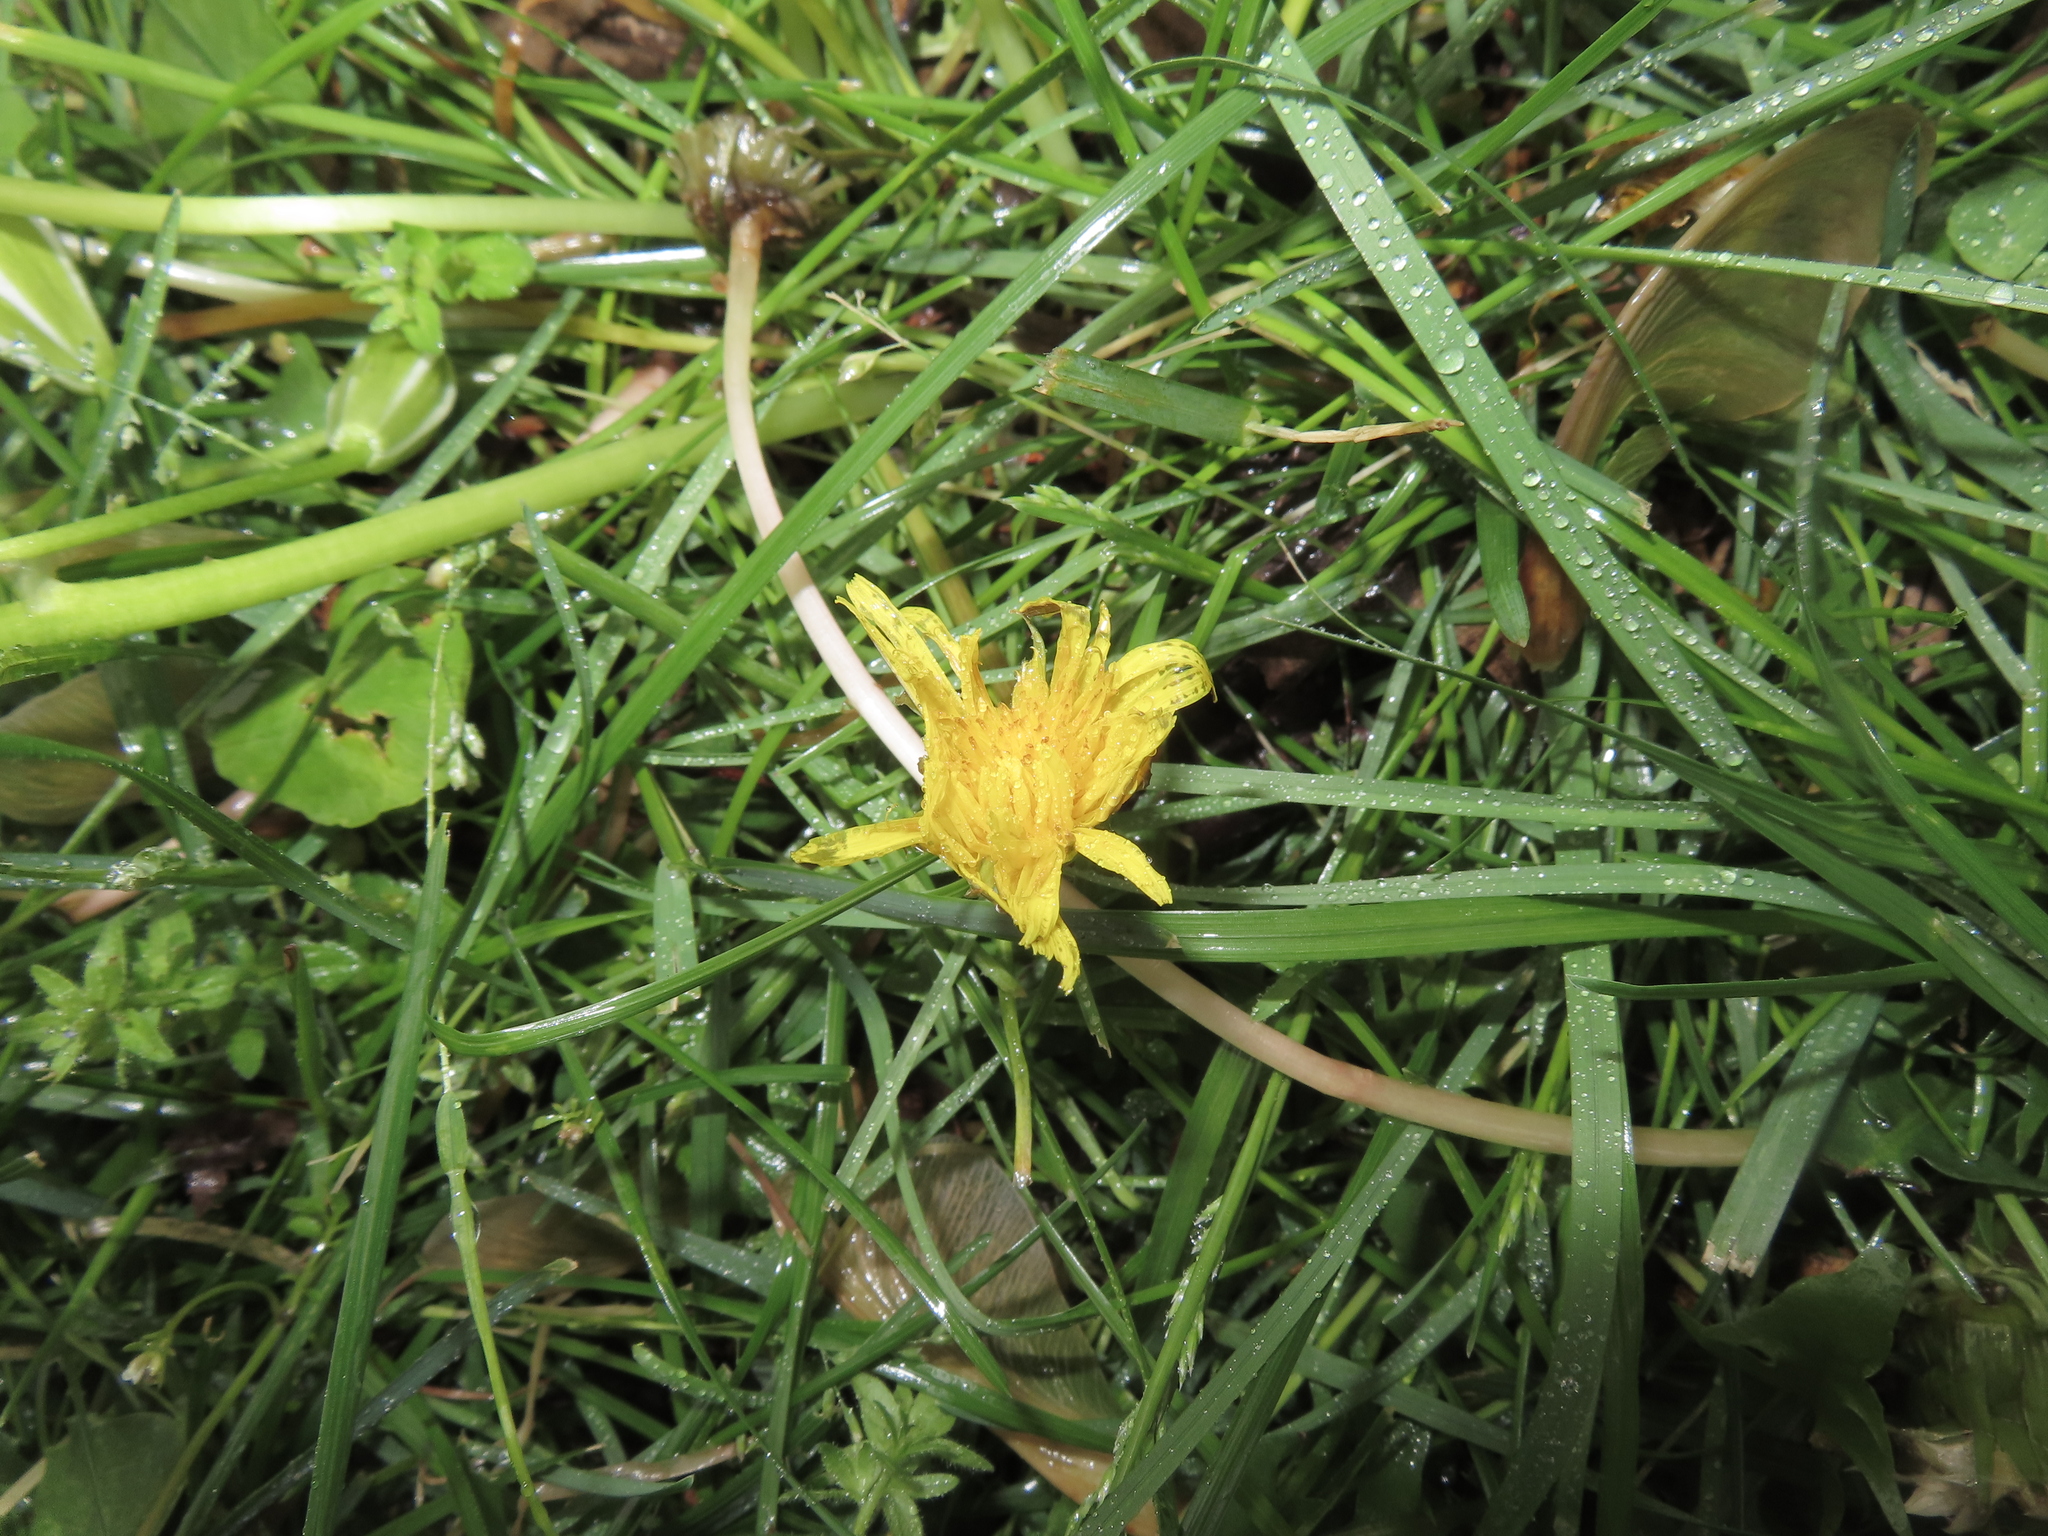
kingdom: Plantae
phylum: Tracheophyta
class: Magnoliopsida
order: Asterales
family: Asteraceae
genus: Taraxacum
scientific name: Taraxacum
